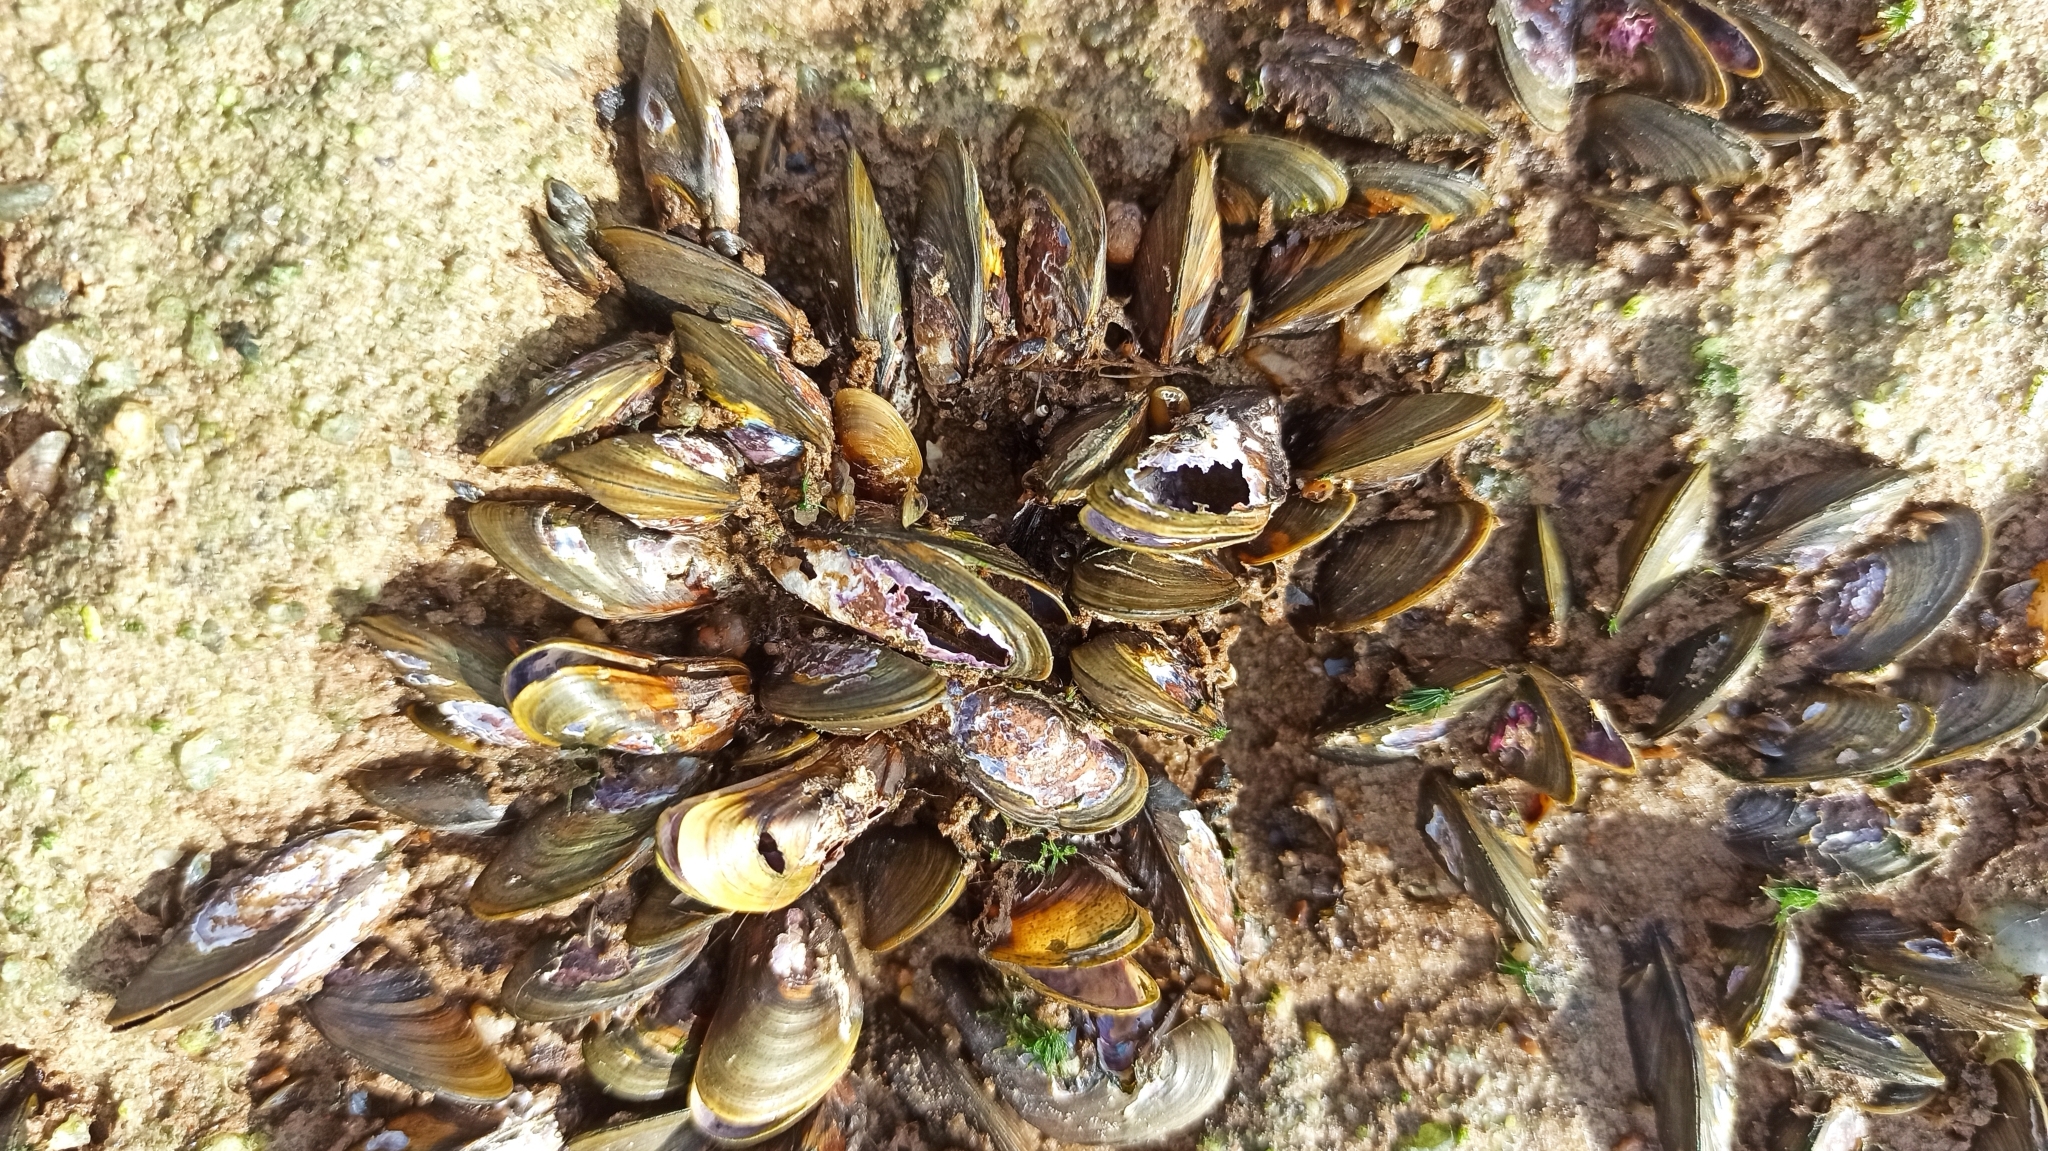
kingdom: Animalia
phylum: Mollusca
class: Bivalvia
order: Mytilida
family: Mytilidae
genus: Limnoperna
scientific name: Limnoperna fortunei
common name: Golden mussel
